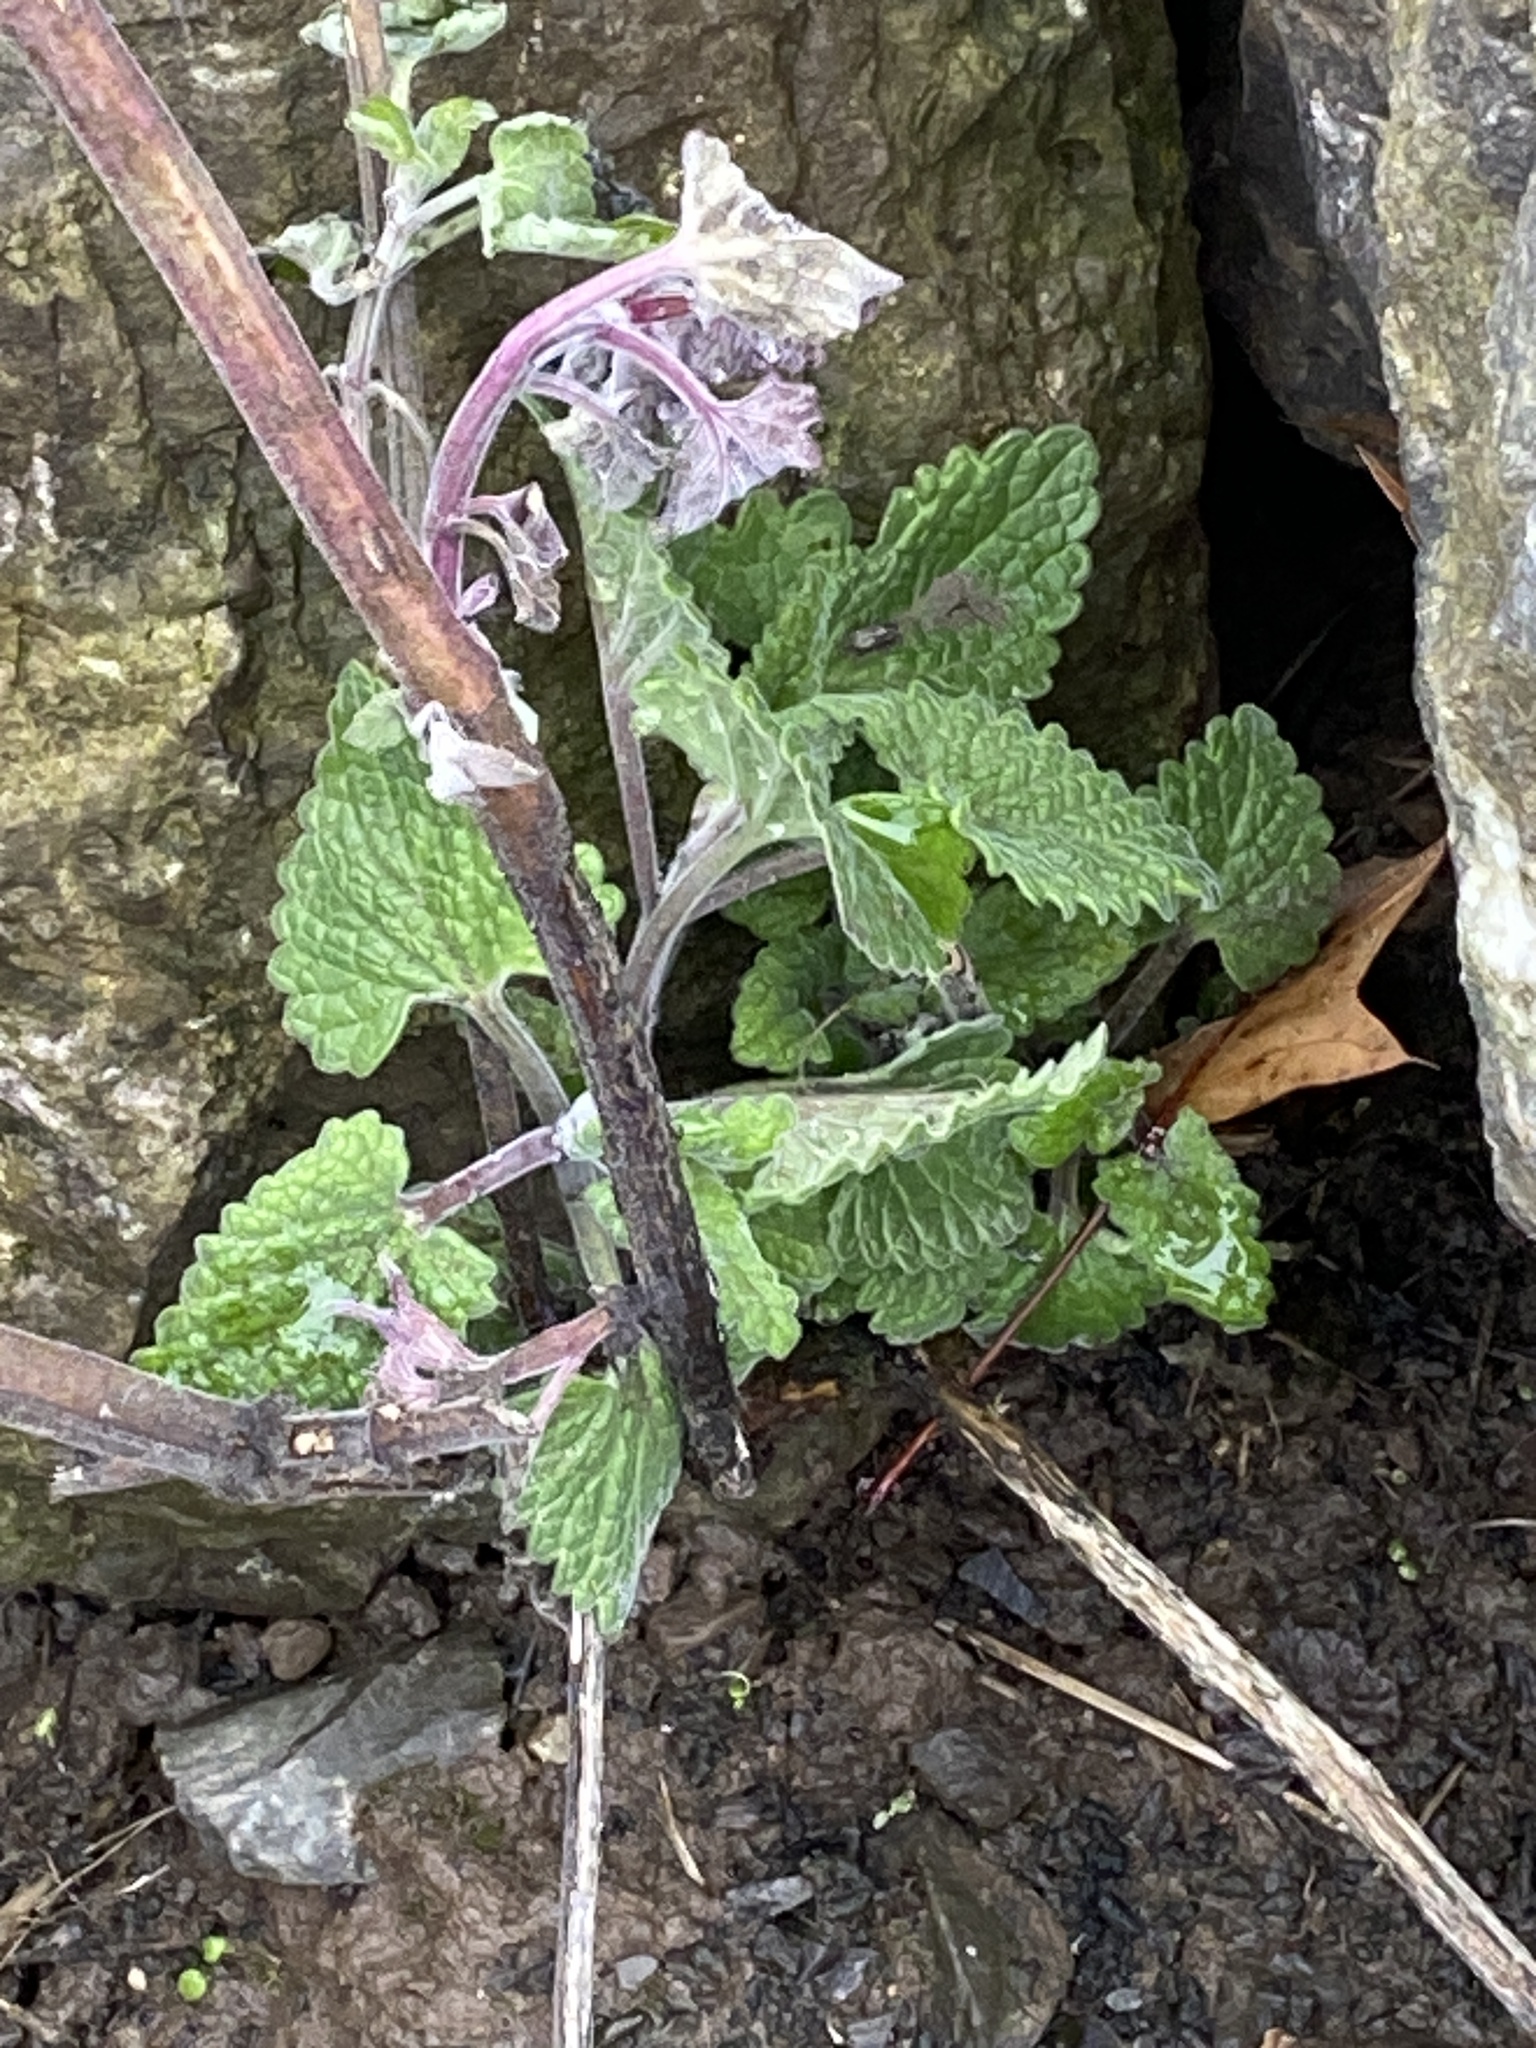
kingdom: Plantae
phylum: Tracheophyta
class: Magnoliopsida
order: Lamiales
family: Lamiaceae
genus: Nepeta
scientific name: Nepeta cataria
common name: Catnip
